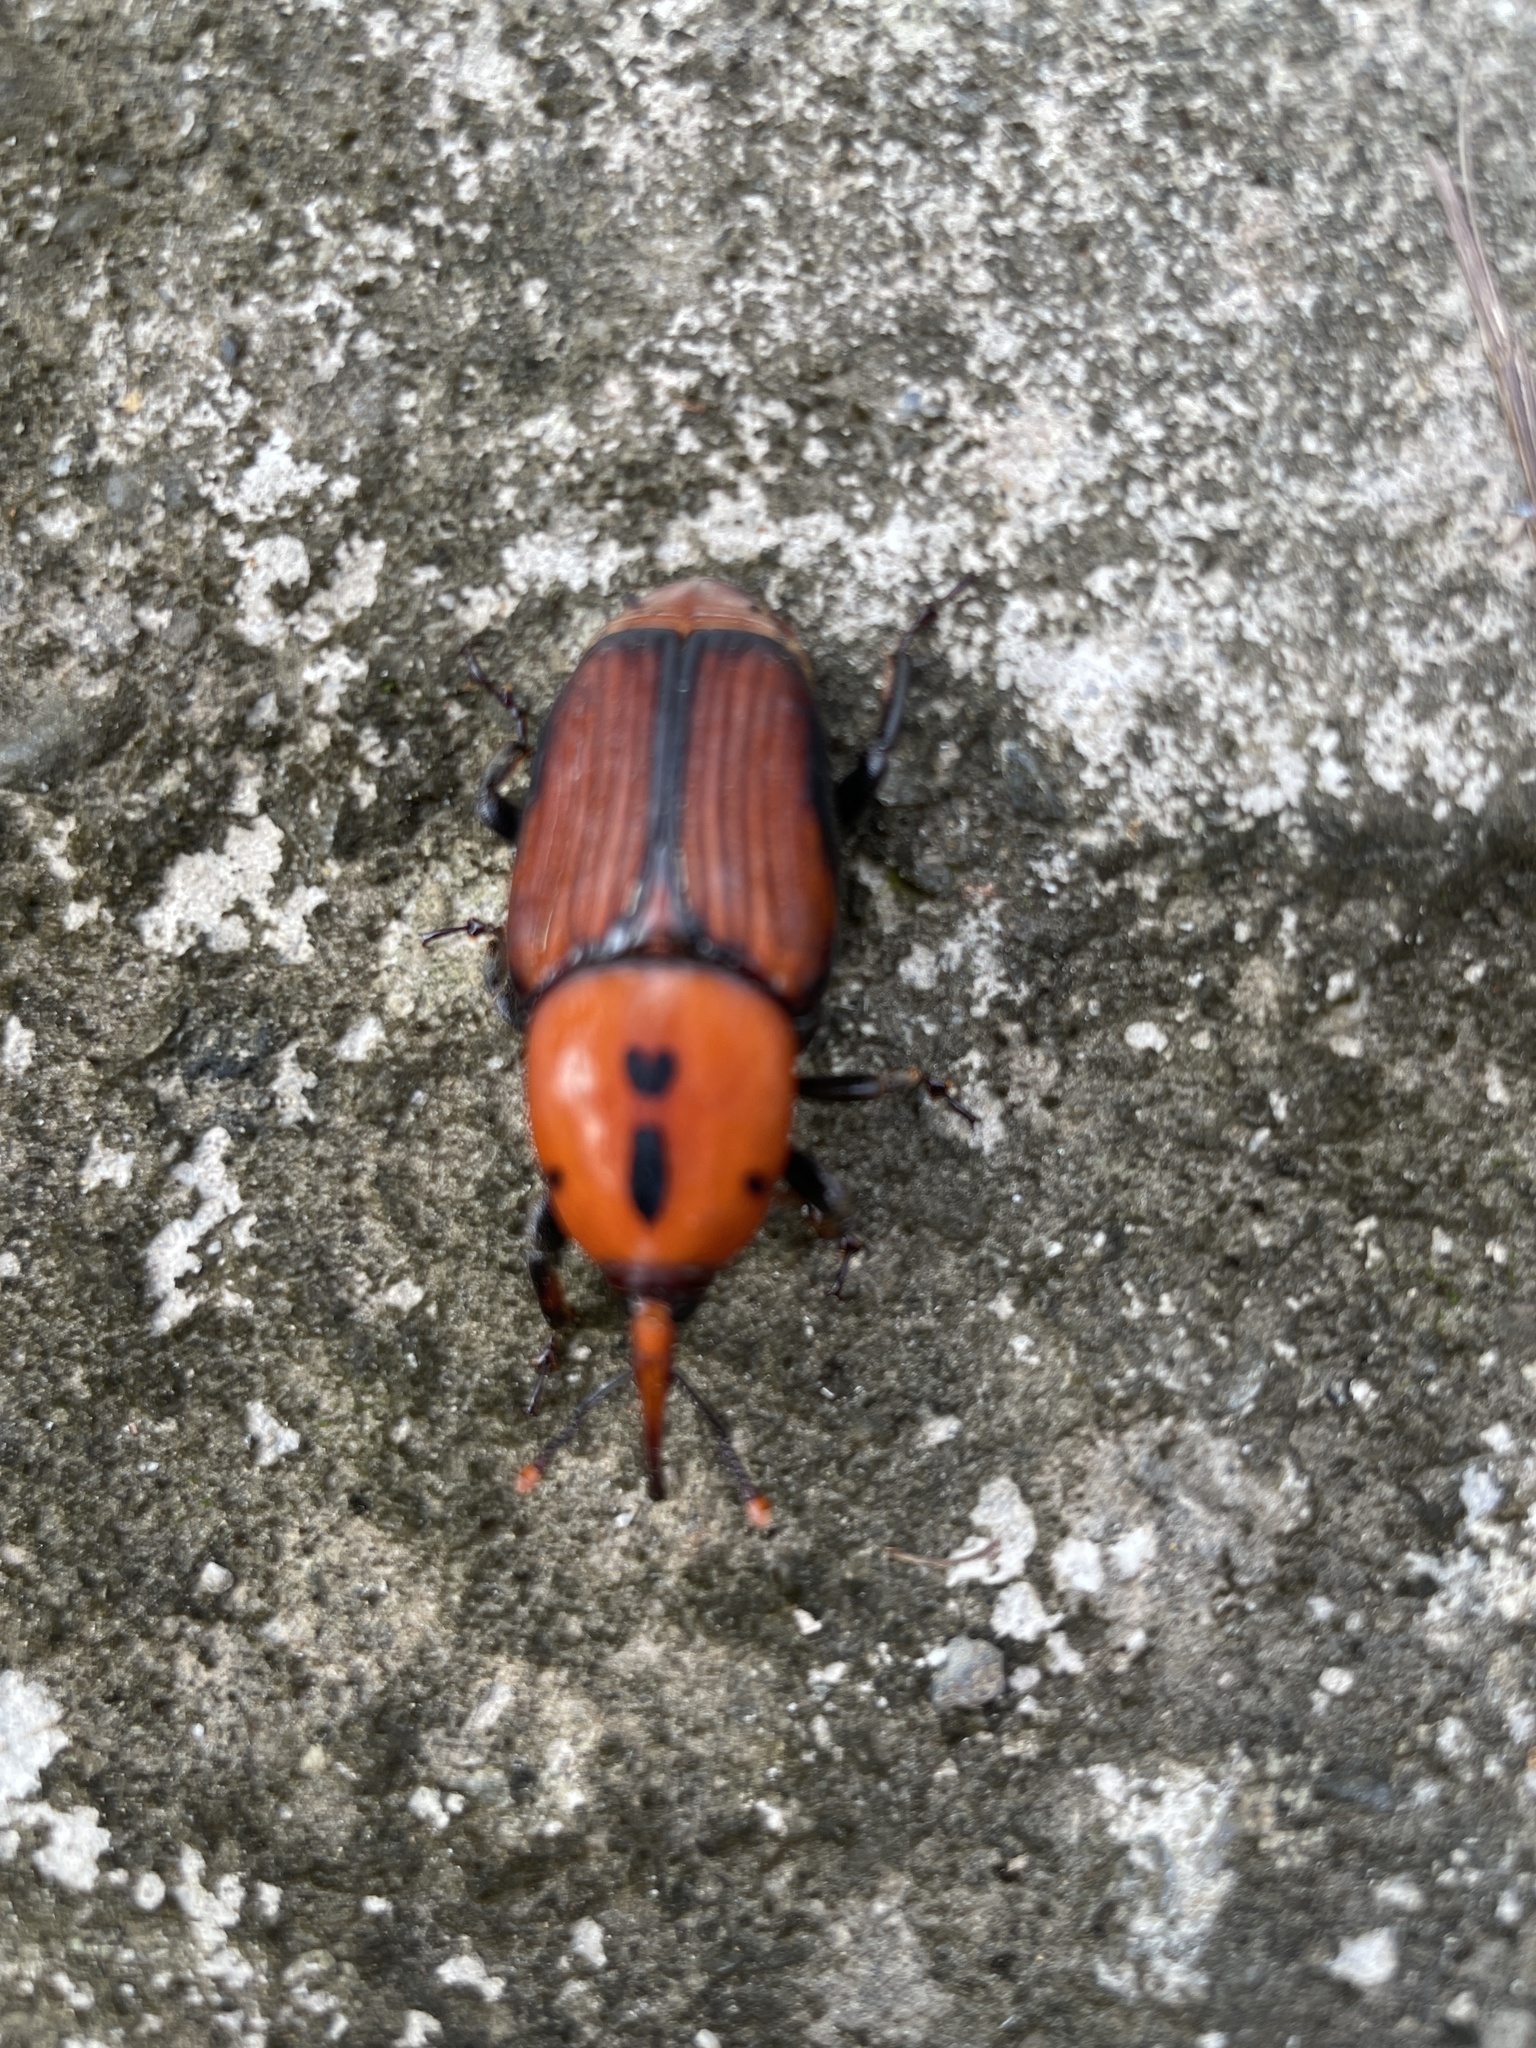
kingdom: Animalia
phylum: Arthropoda
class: Insecta
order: Coleoptera
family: Dryophthoridae
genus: Rhynchophorus
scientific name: Rhynchophorus ferrugineus
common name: Red palm weevil
